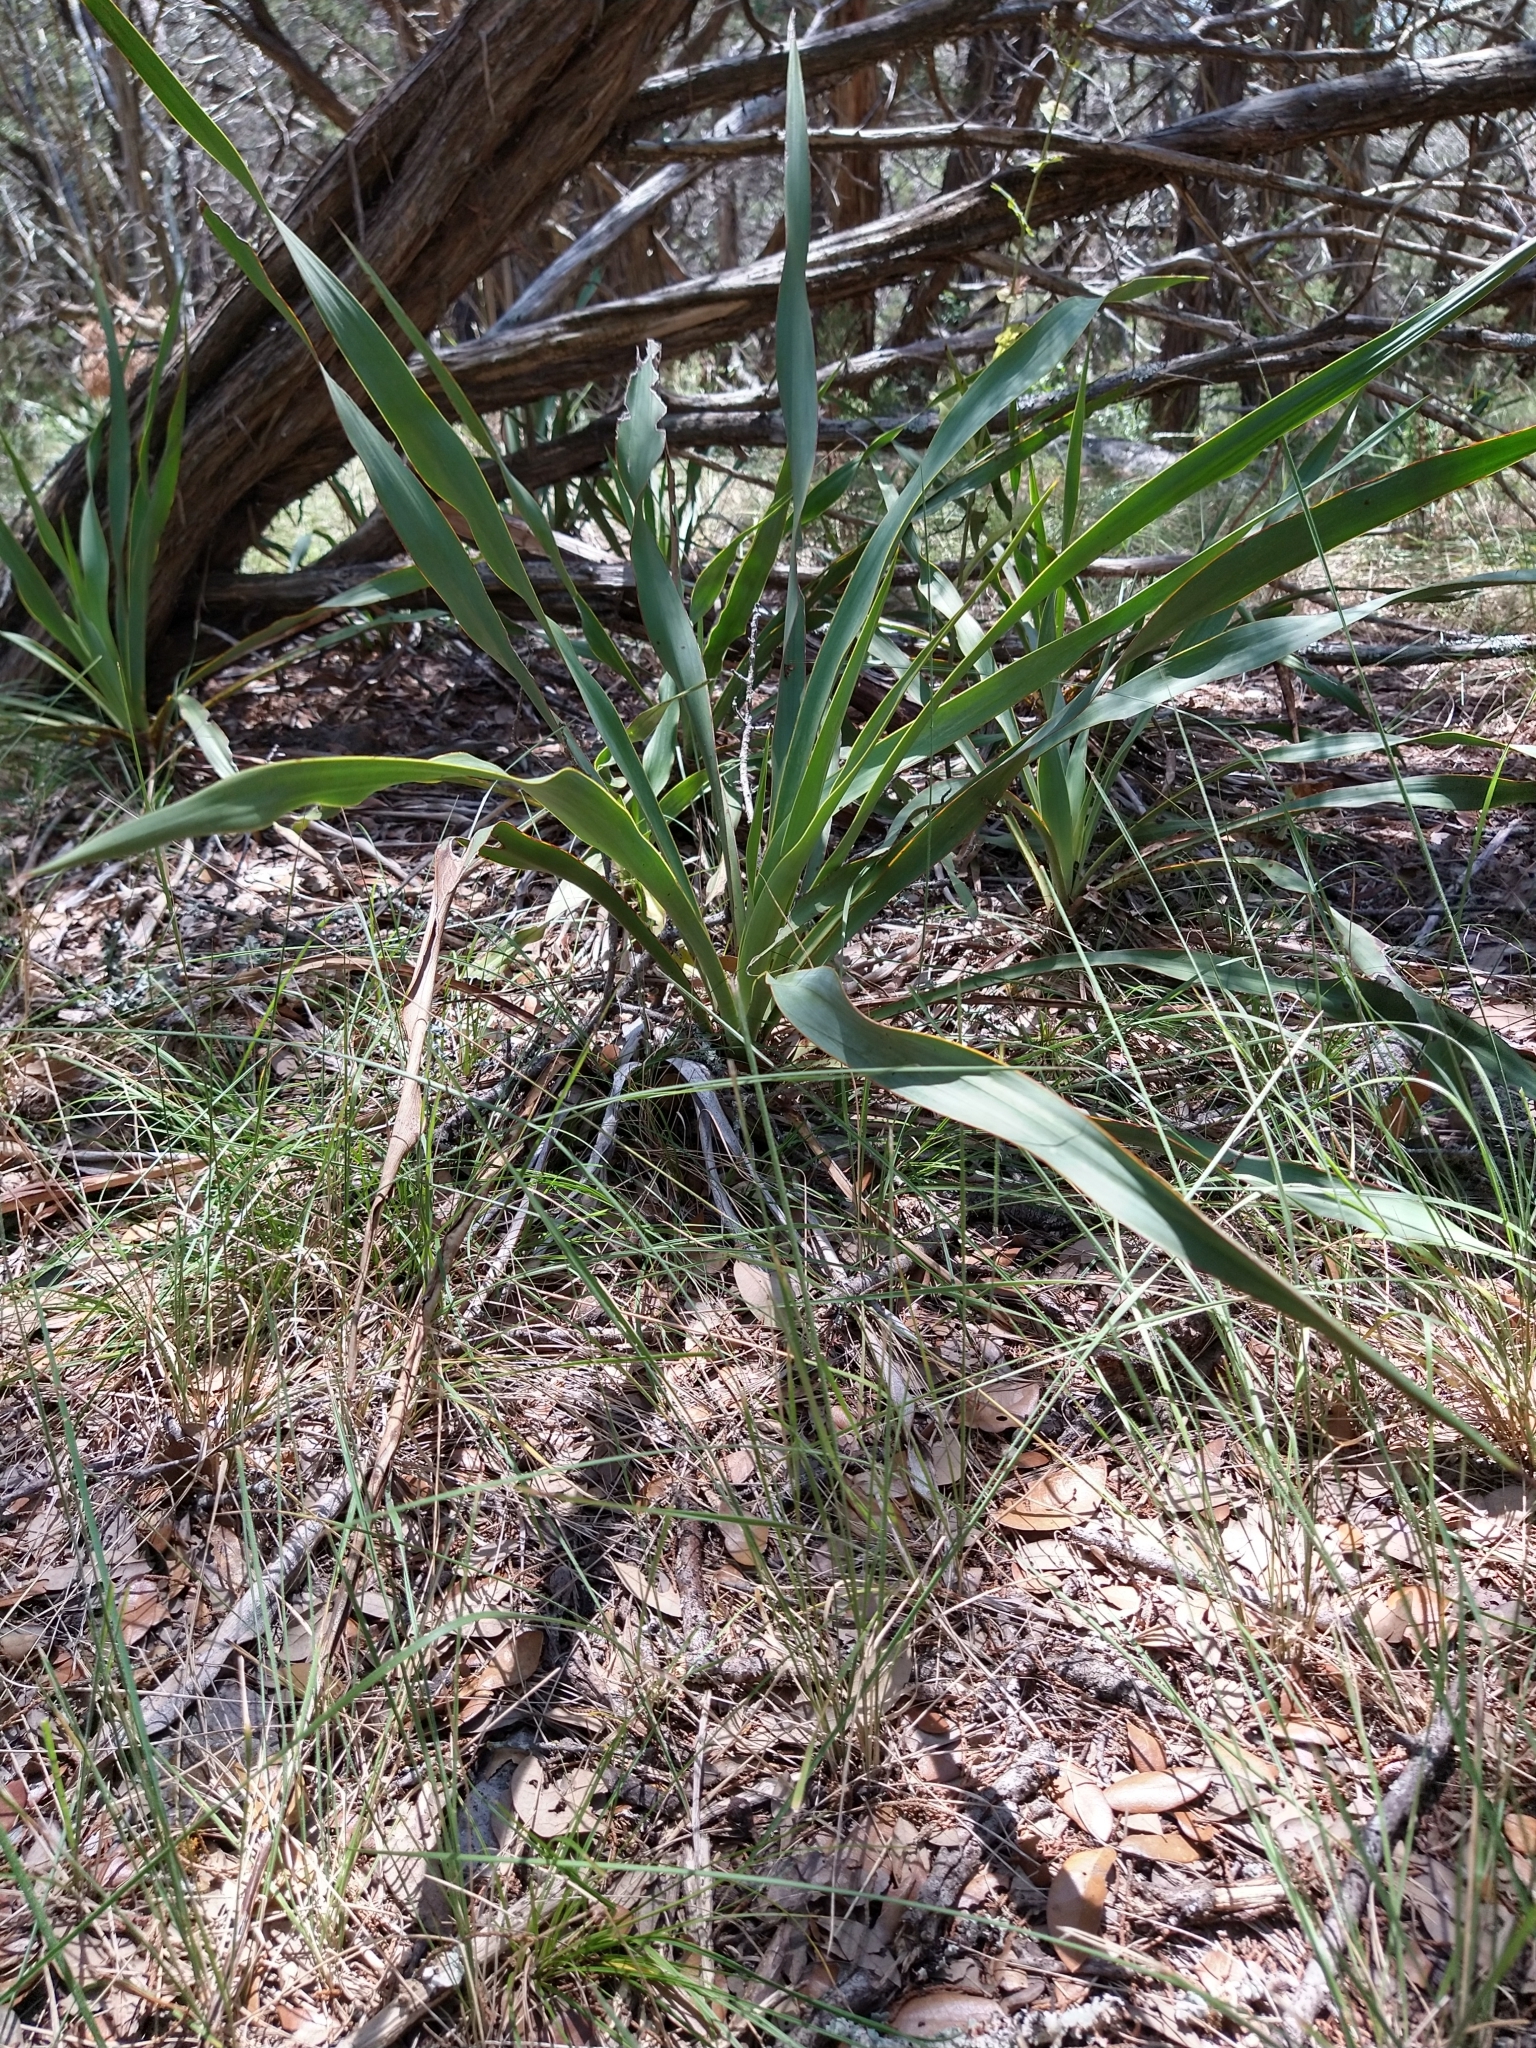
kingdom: Plantae
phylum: Tracheophyta
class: Liliopsida
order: Asparagales
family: Asparagaceae
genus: Yucca
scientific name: Yucca rupicola
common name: Twisted-leaf spanish-dagger
